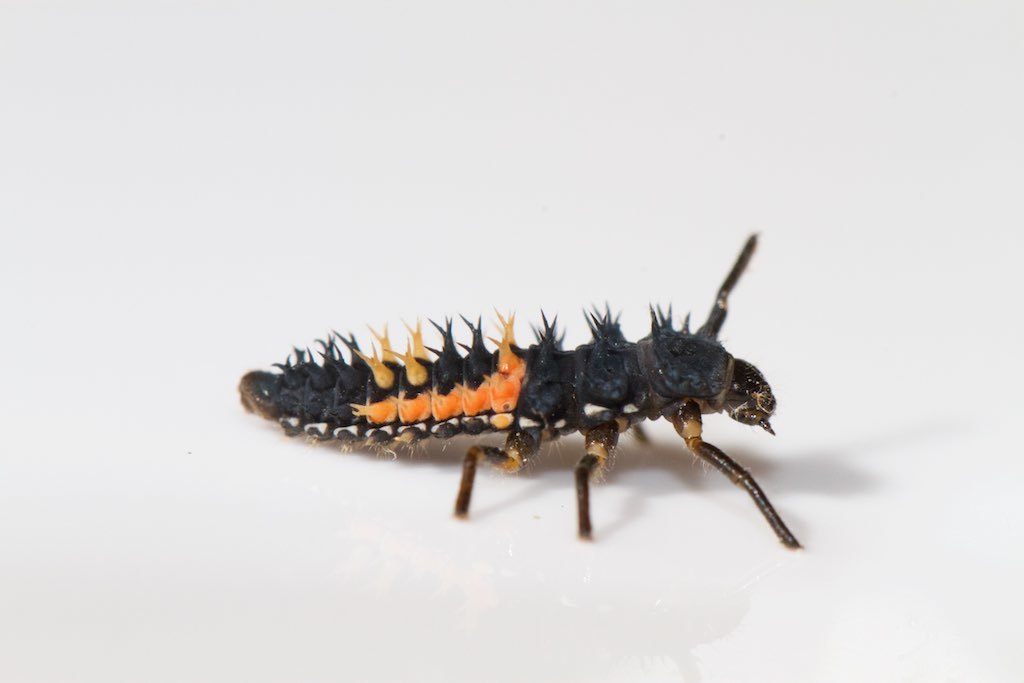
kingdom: Animalia
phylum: Arthropoda
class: Insecta
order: Coleoptera
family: Coccinellidae
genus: Harmonia
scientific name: Harmonia axyridis
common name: Harlequin ladybird
